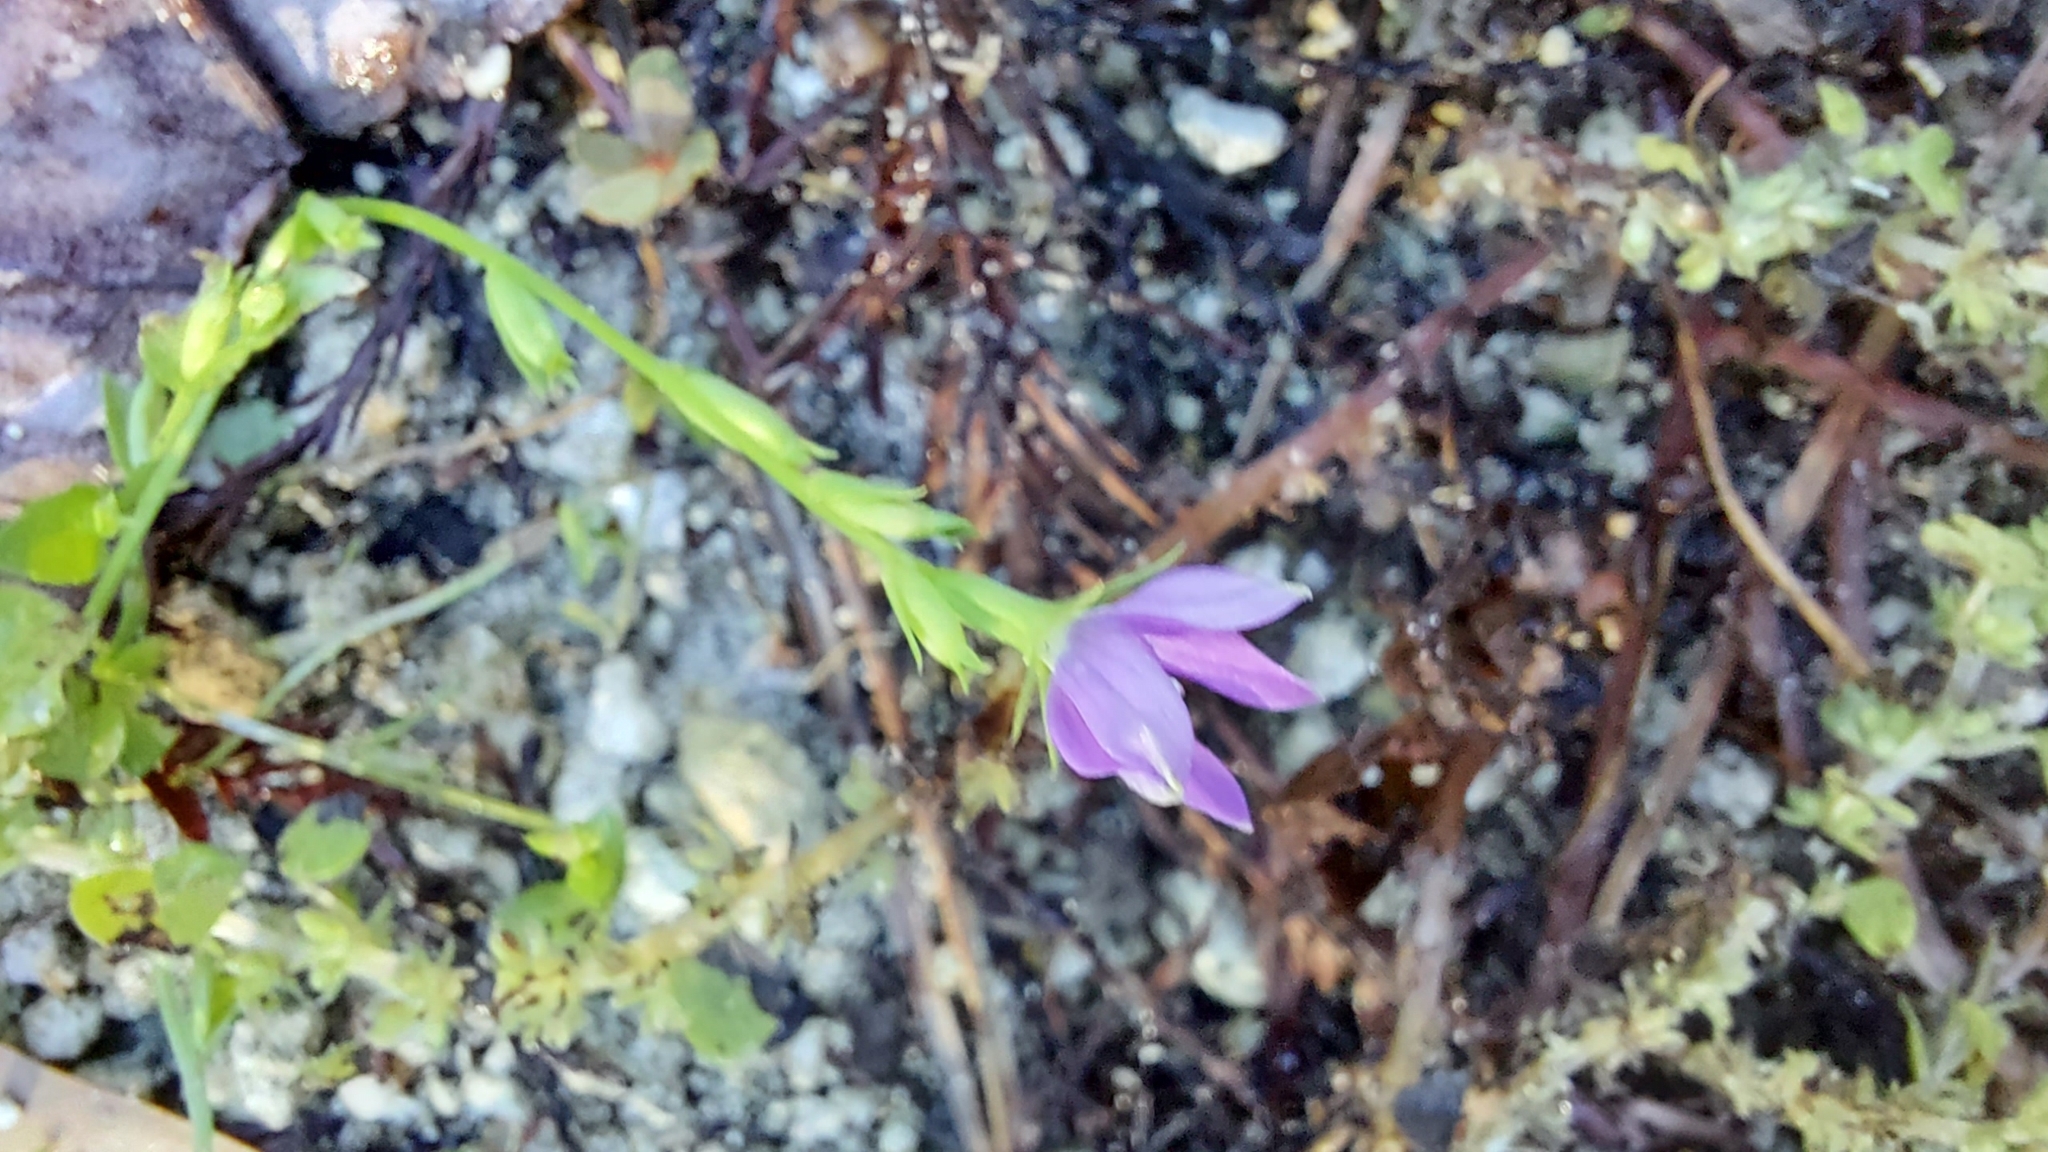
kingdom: Plantae
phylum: Tracheophyta
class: Magnoliopsida
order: Asterales
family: Campanulaceae
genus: Triodanis
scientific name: Triodanis biflora
